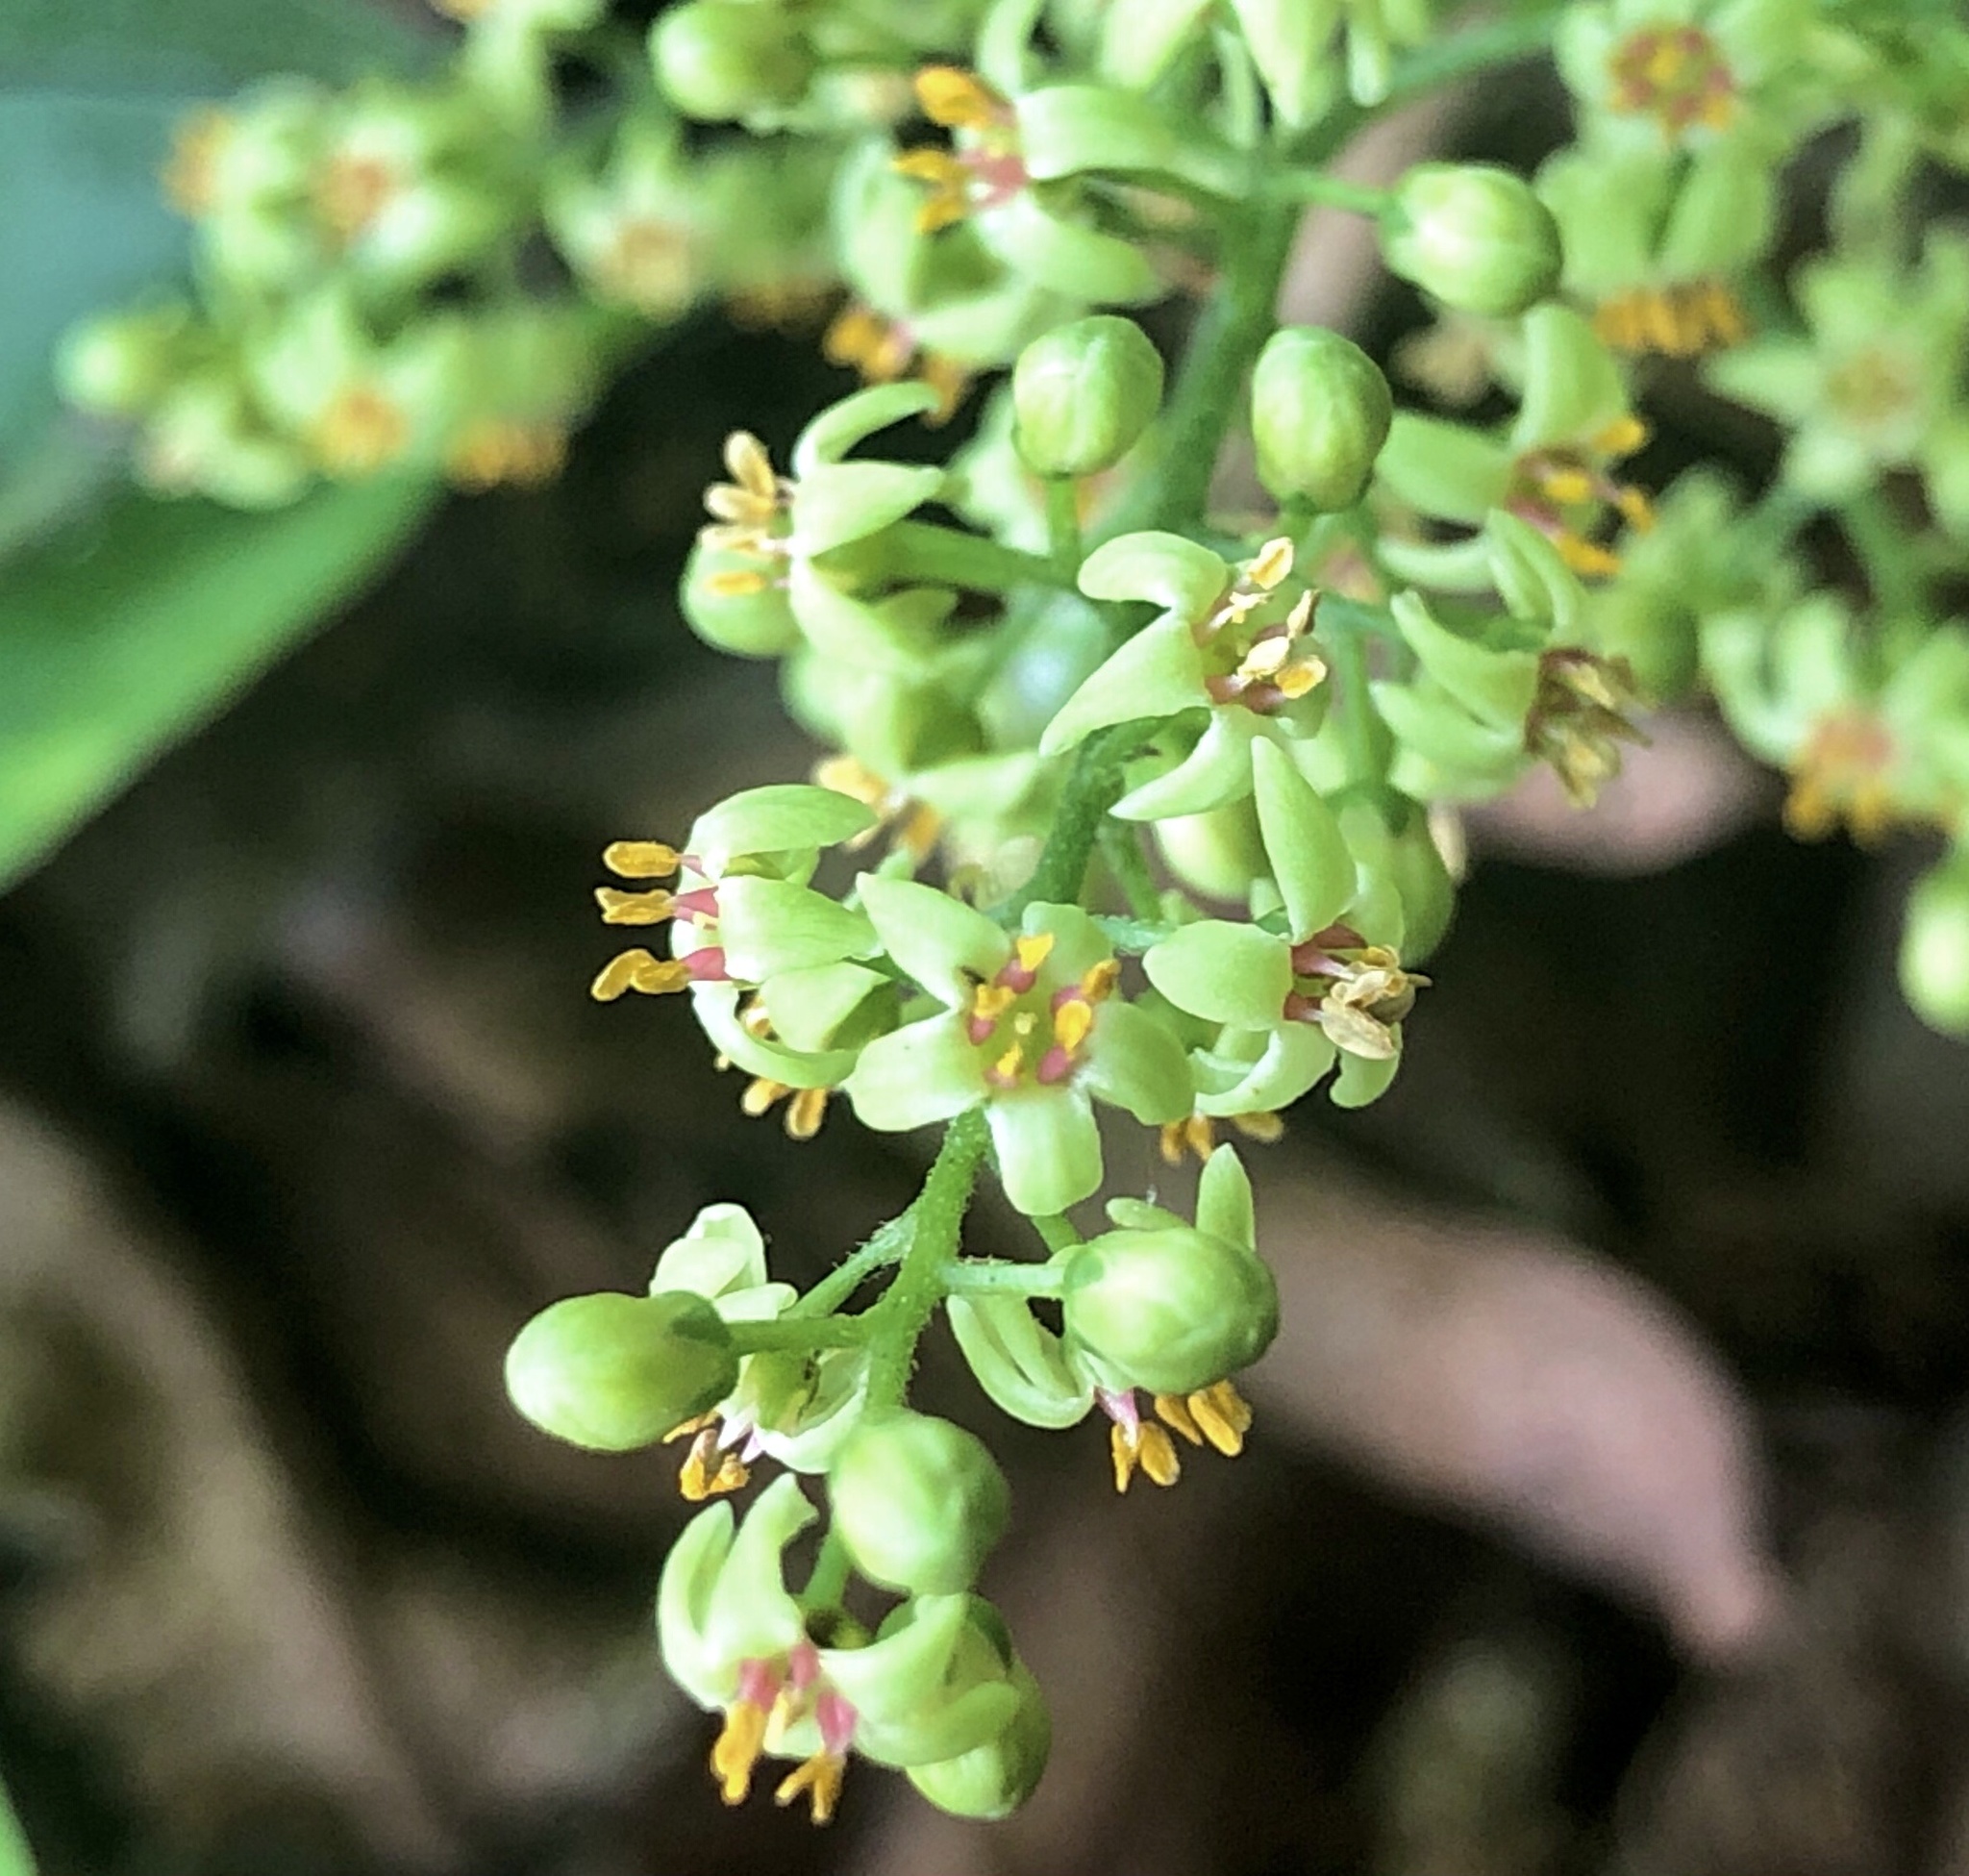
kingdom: Plantae
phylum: Tracheophyta
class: Magnoliopsida
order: Sapindales
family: Anacardiaceae
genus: Toxicodendron
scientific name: Toxicodendron radicans
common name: Poison ivy
